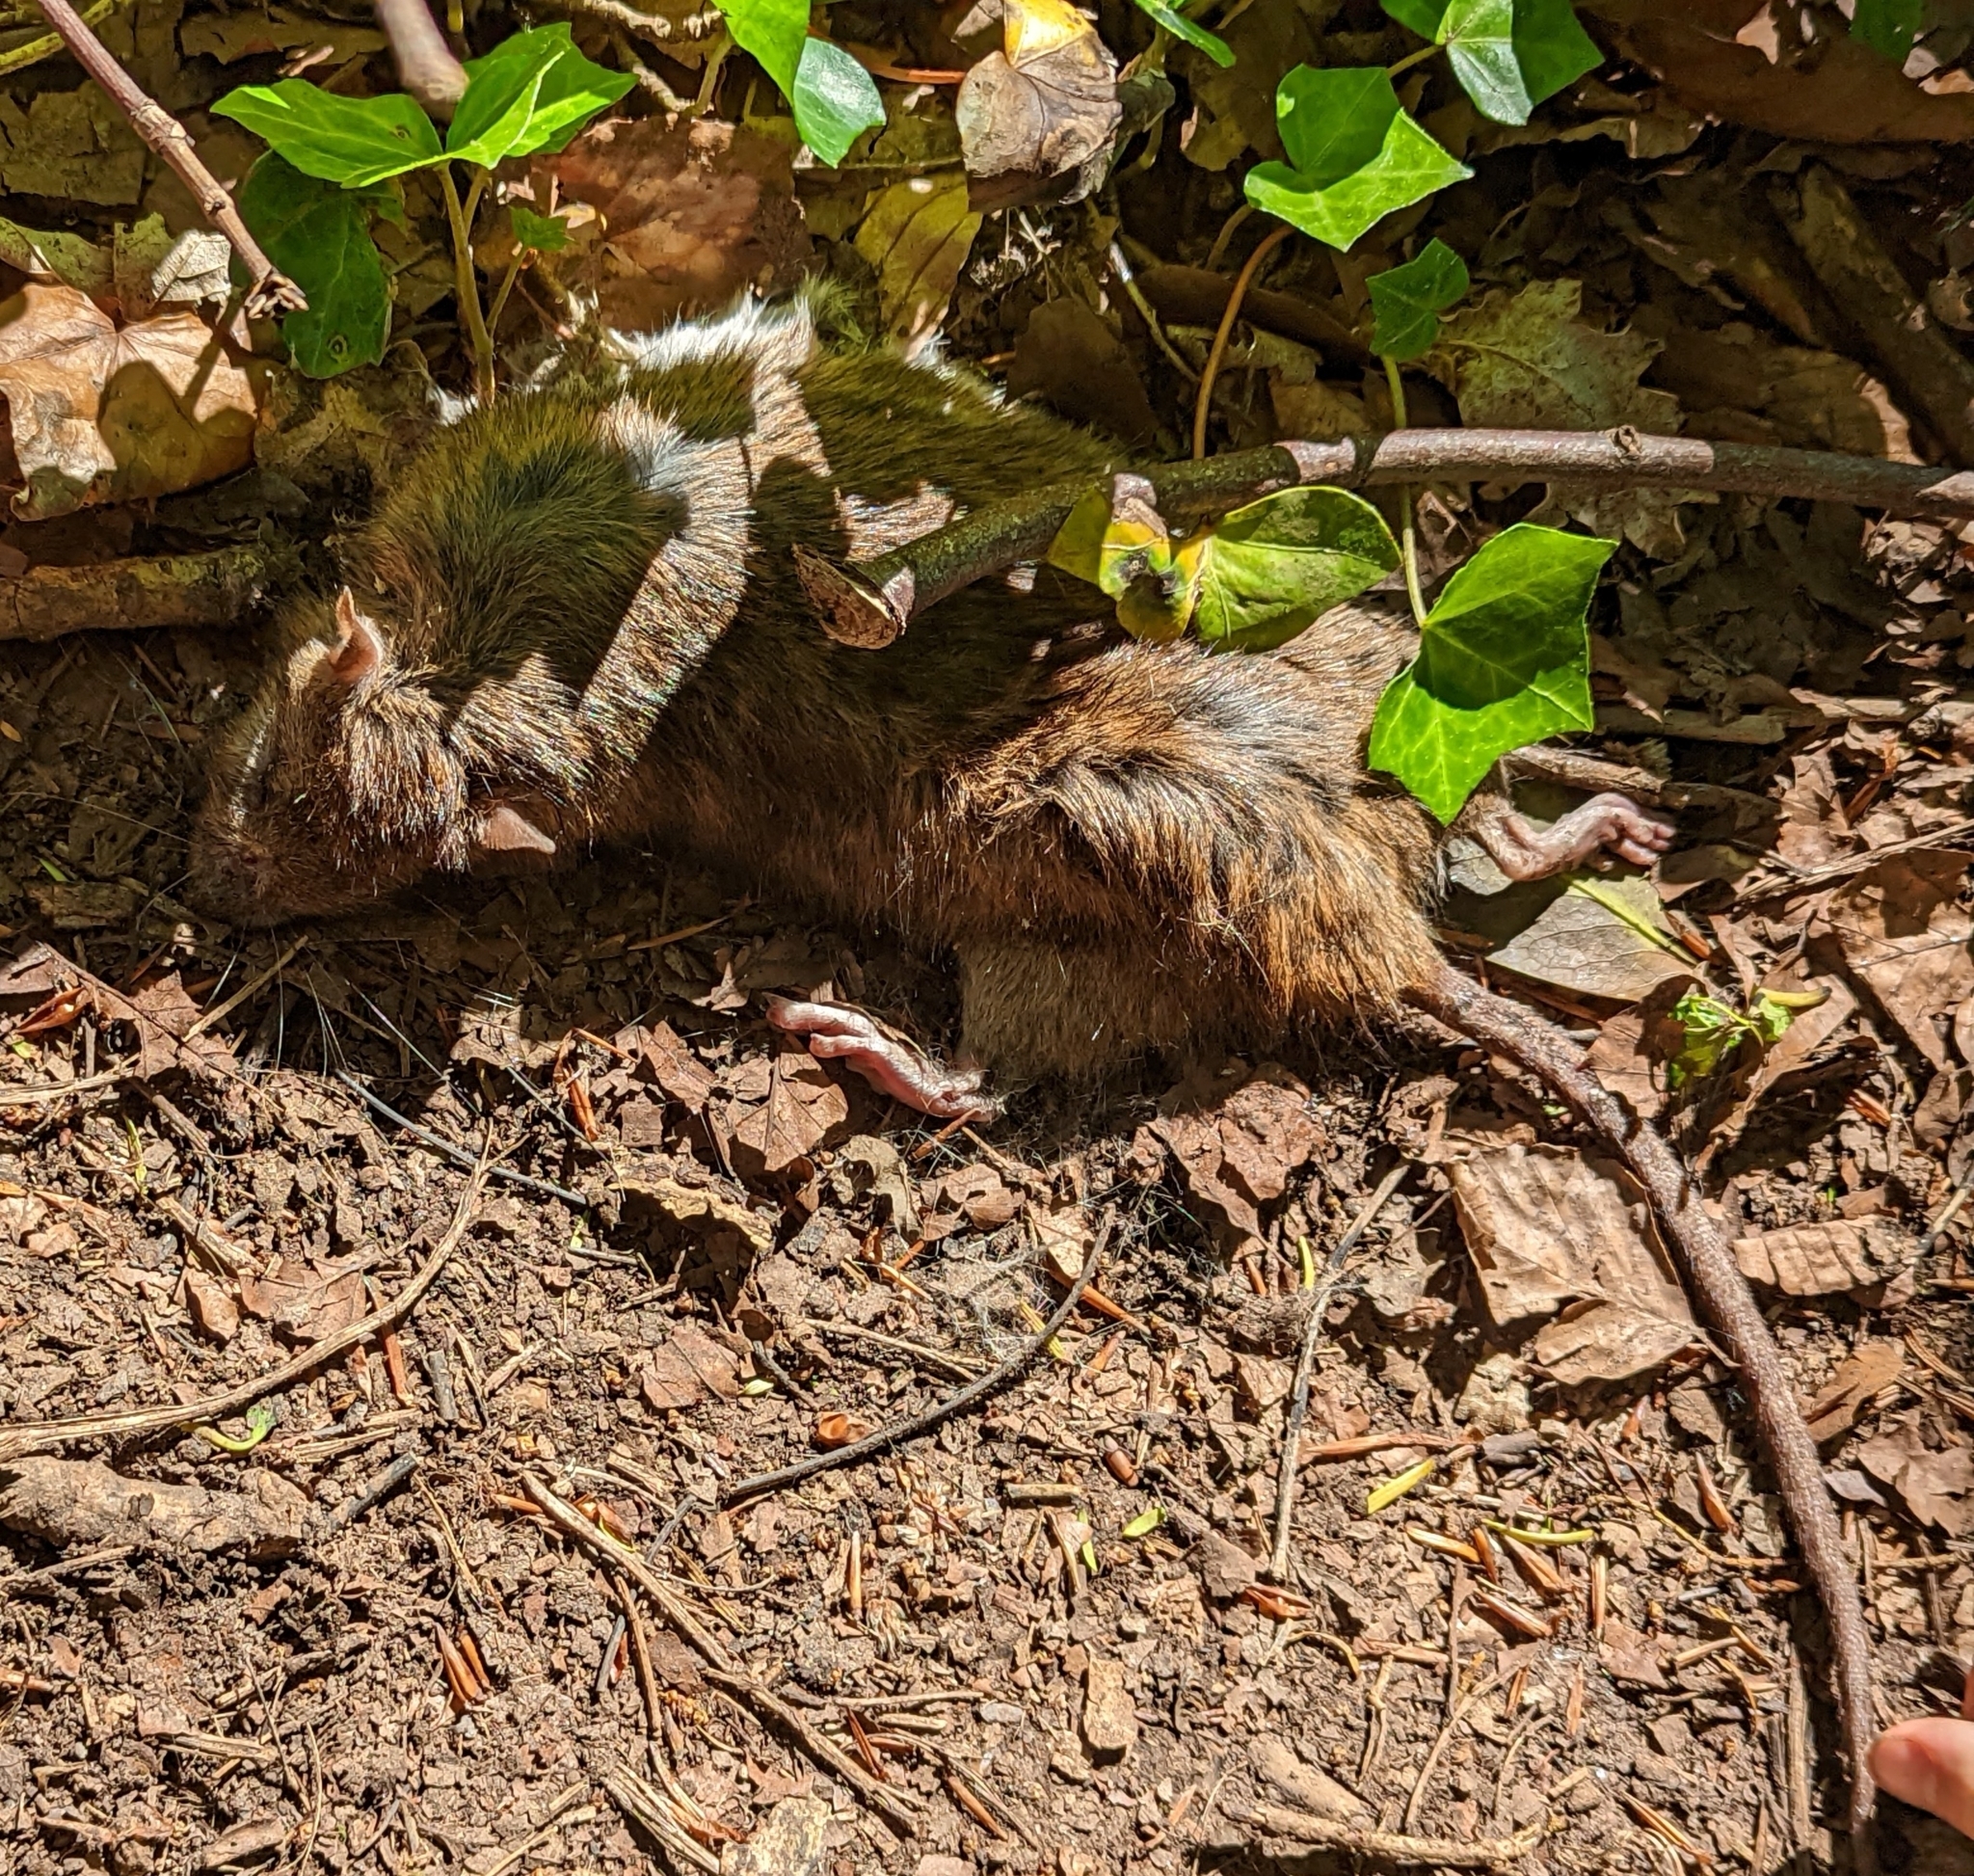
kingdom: Animalia
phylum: Chordata
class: Mammalia
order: Rodentia
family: Muridae
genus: Rattus
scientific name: Rattus norvegicus
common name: Brown rat
